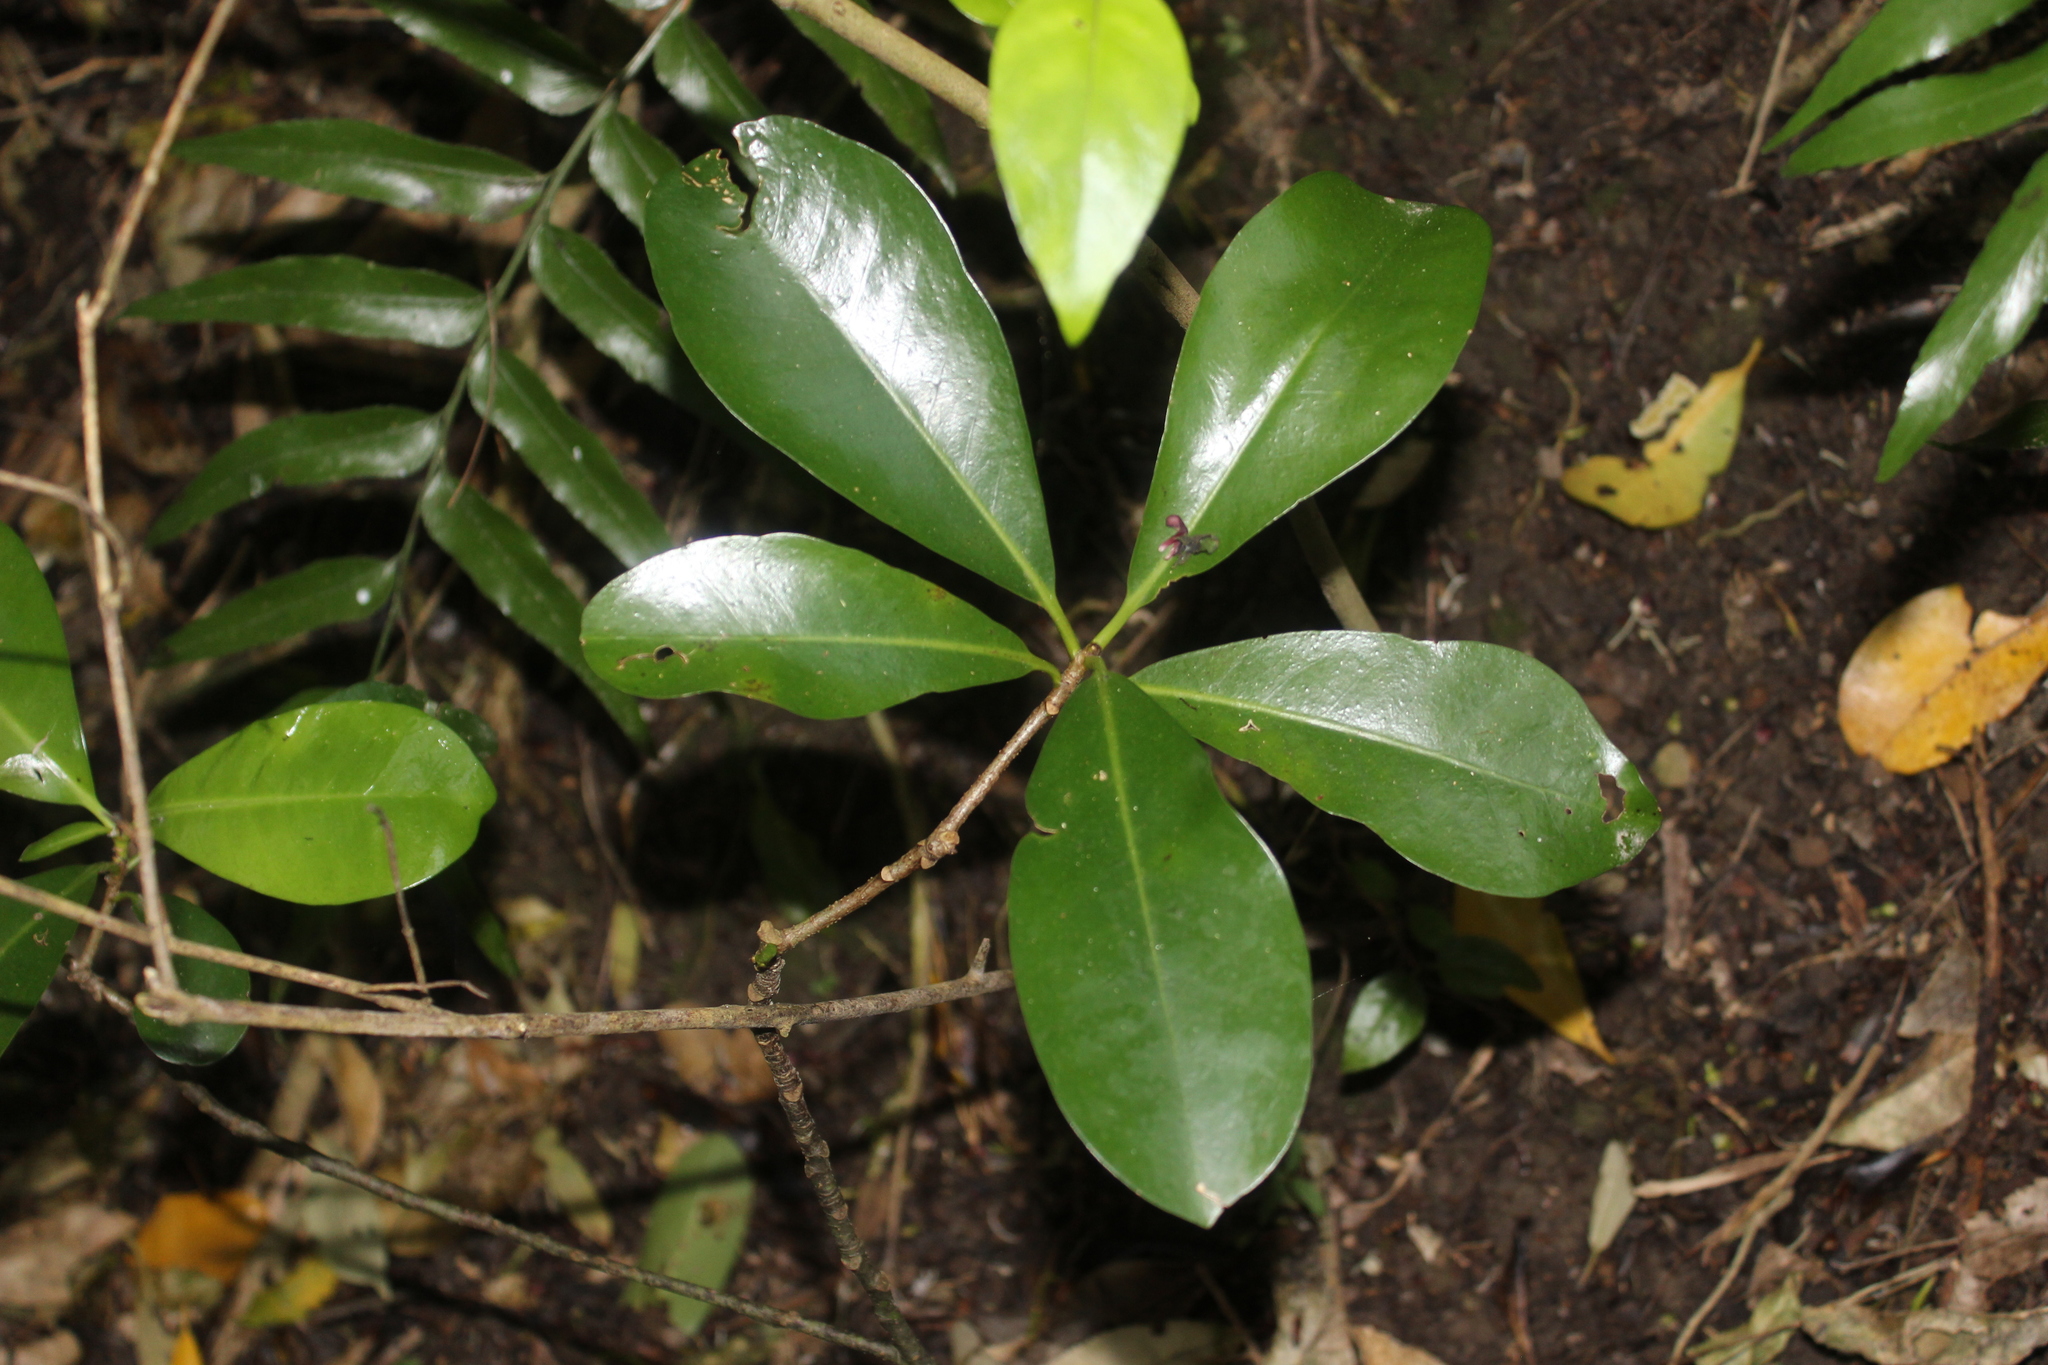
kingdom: Plantae
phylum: Tracheophyta
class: Magnoliopsida
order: Cucurbitales
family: Corynocarpaceae
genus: Corynocarpus
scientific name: Corynocarpus laevigatus
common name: New zealand laurel
